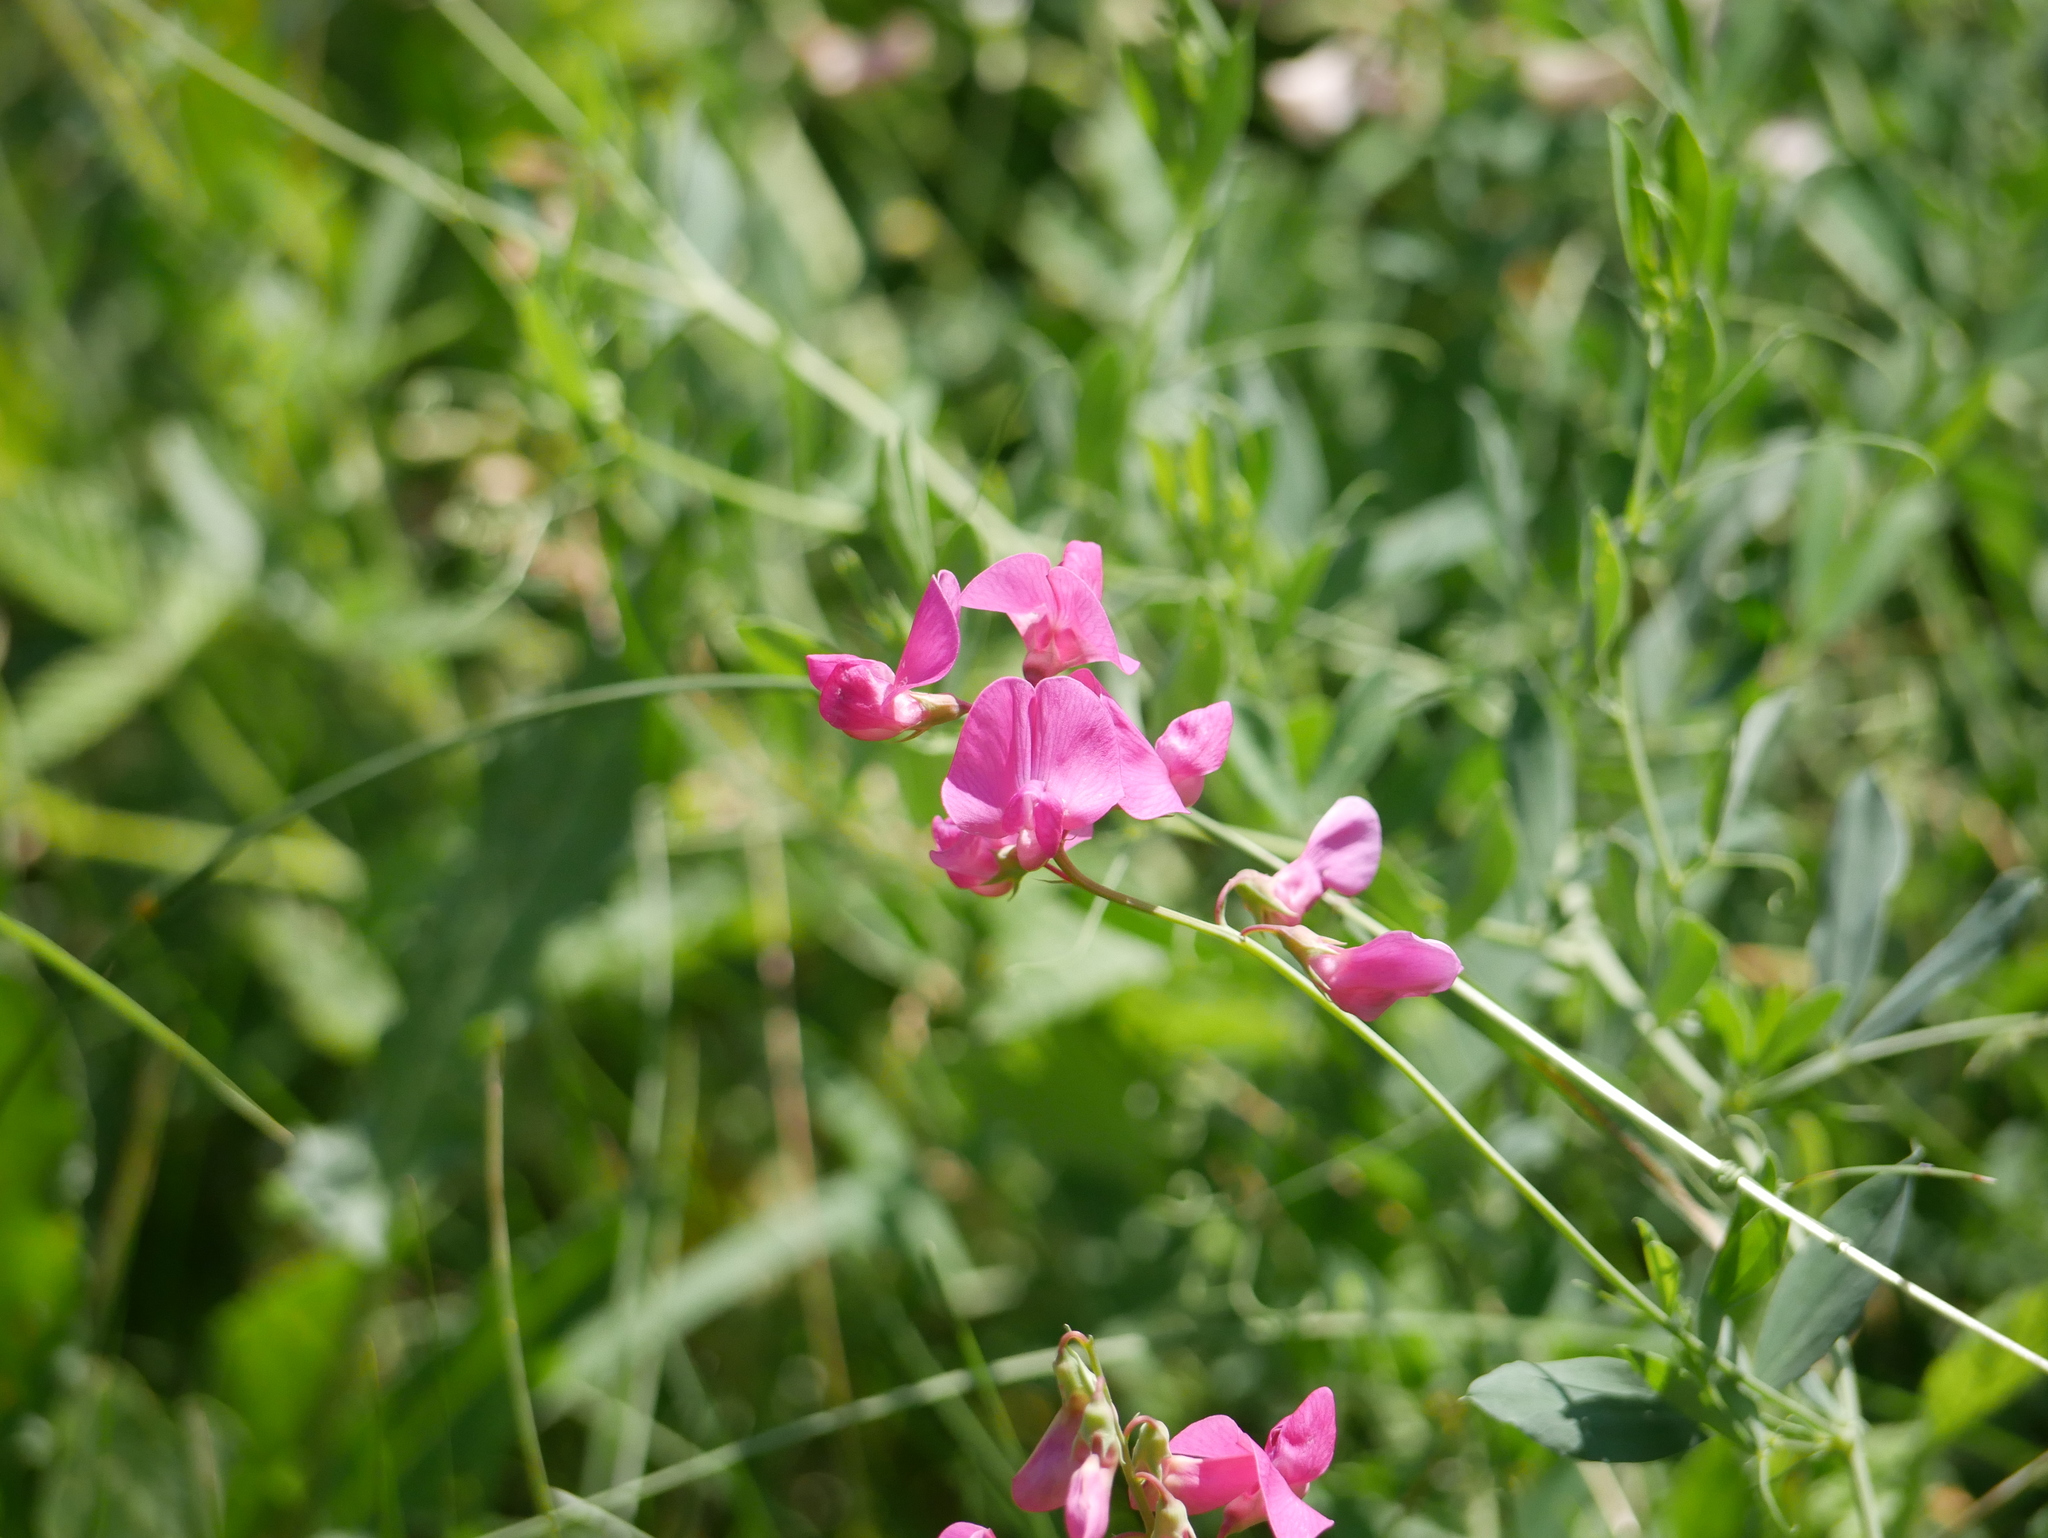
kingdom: Plantae
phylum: Tracheophyta
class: Magnoliopsida
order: Fabales
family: Fabaceae
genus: Lathyrus
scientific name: Lathyrus tuberosus
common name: Tuberous pea
